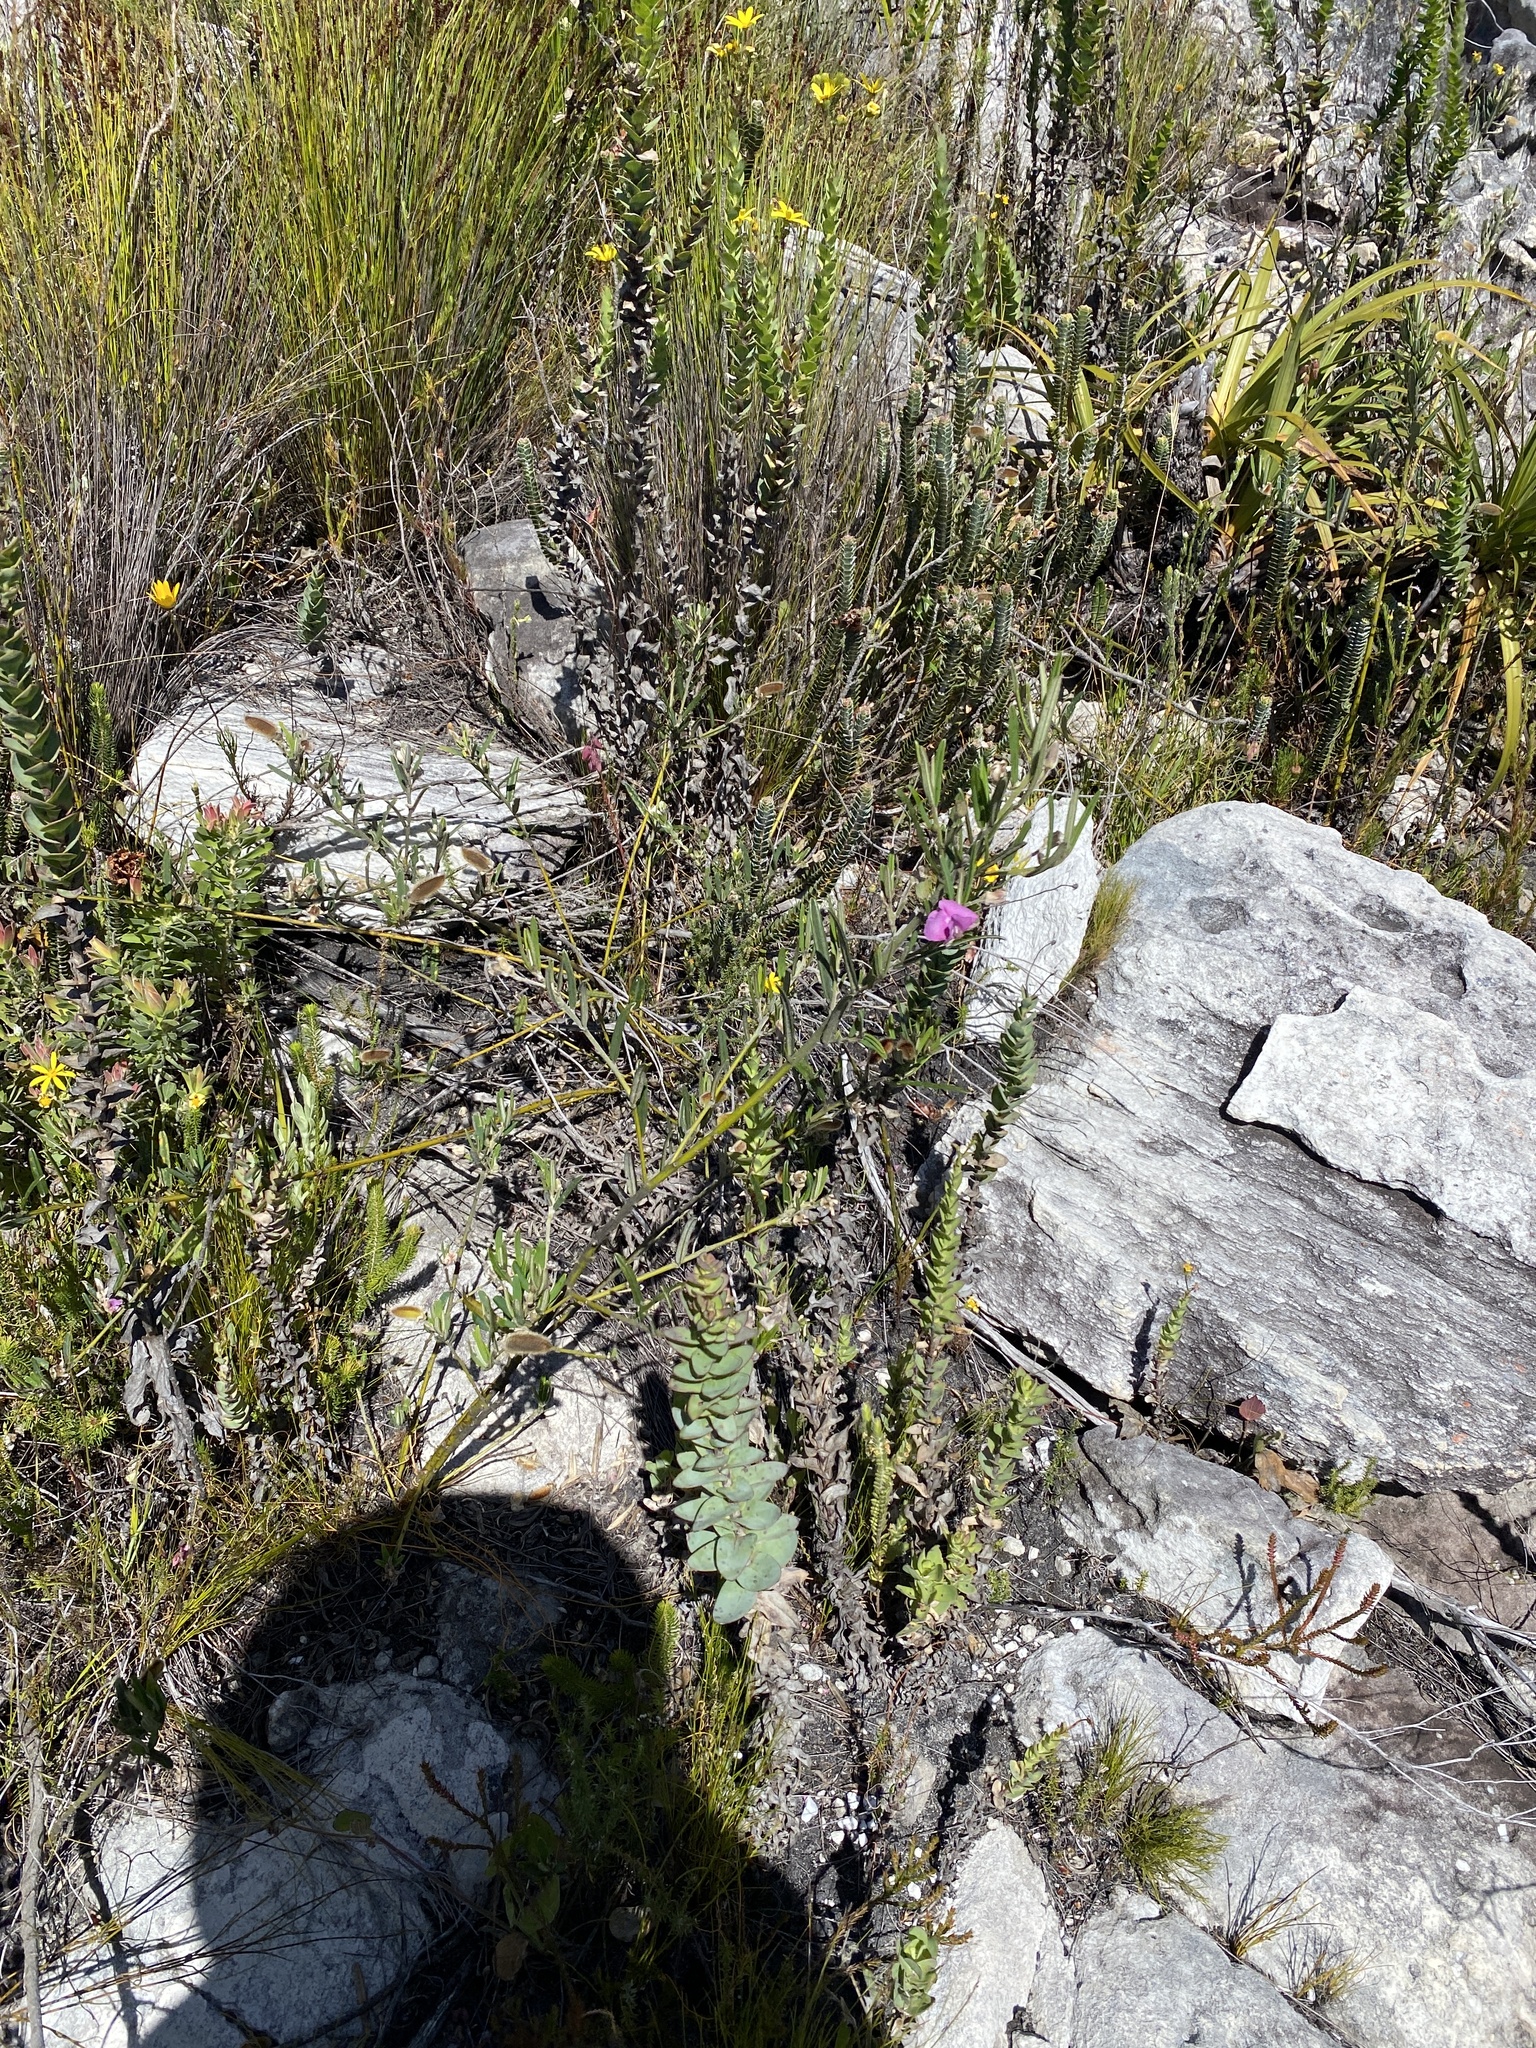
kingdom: Plantae
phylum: Tracheophyta
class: Magnoliopsida
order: Fabales
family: Fabaceae
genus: Podalyria
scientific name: Podalyria oleifolia
